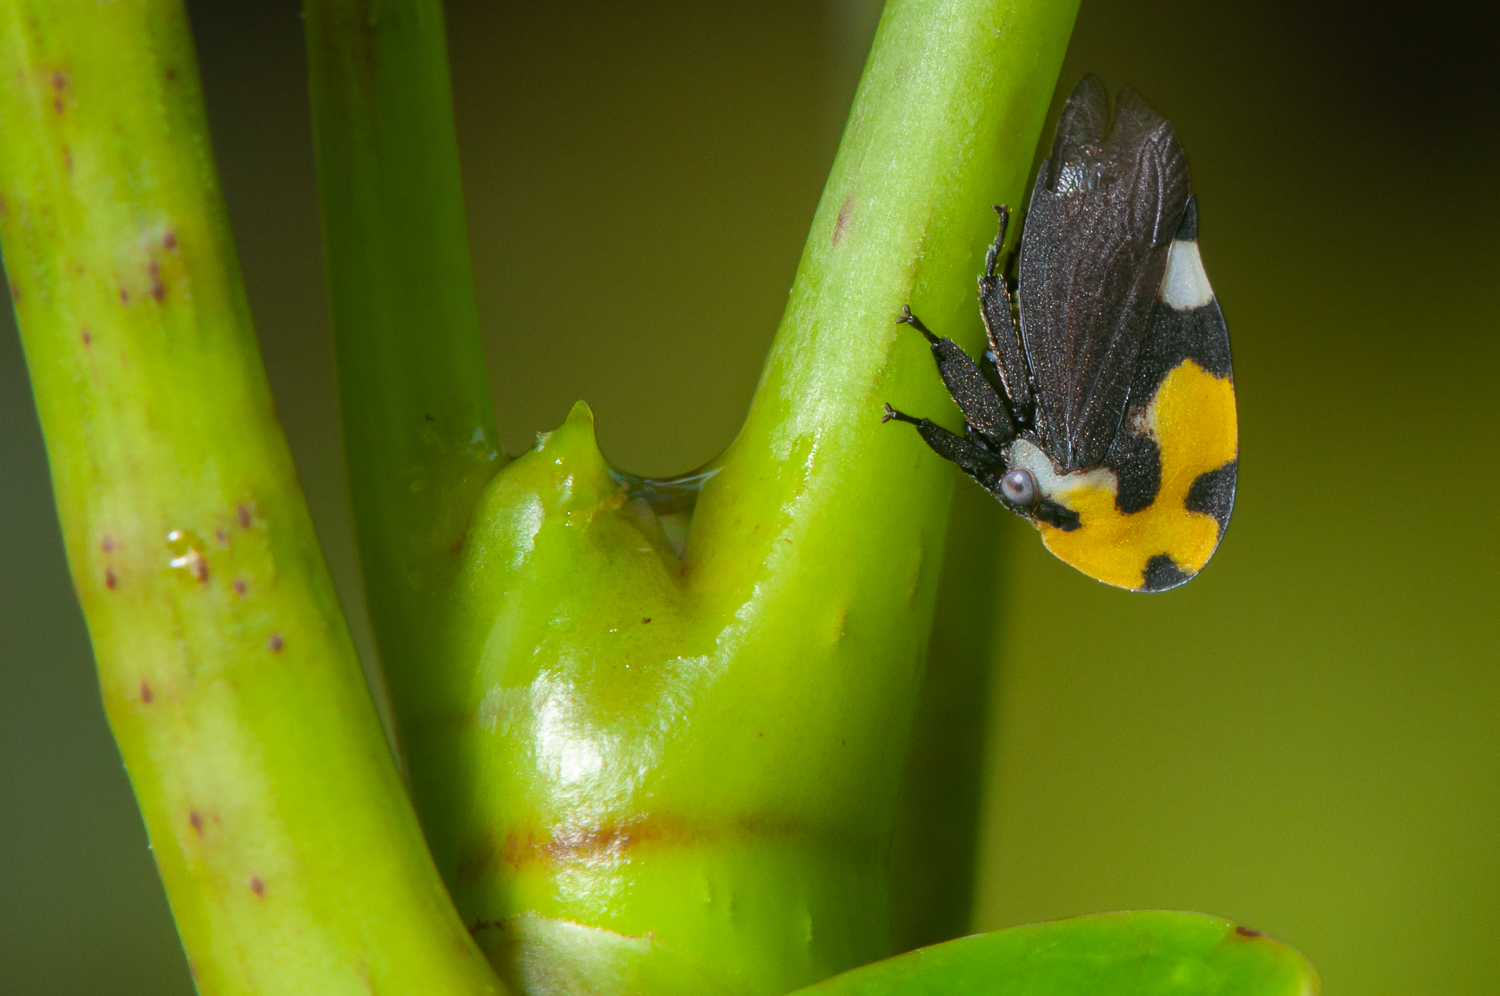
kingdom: Animalia
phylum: Arthropoda
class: Insecta
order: Hemiptera
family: Membracidae
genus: Membracis
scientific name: Membracis mexicana
